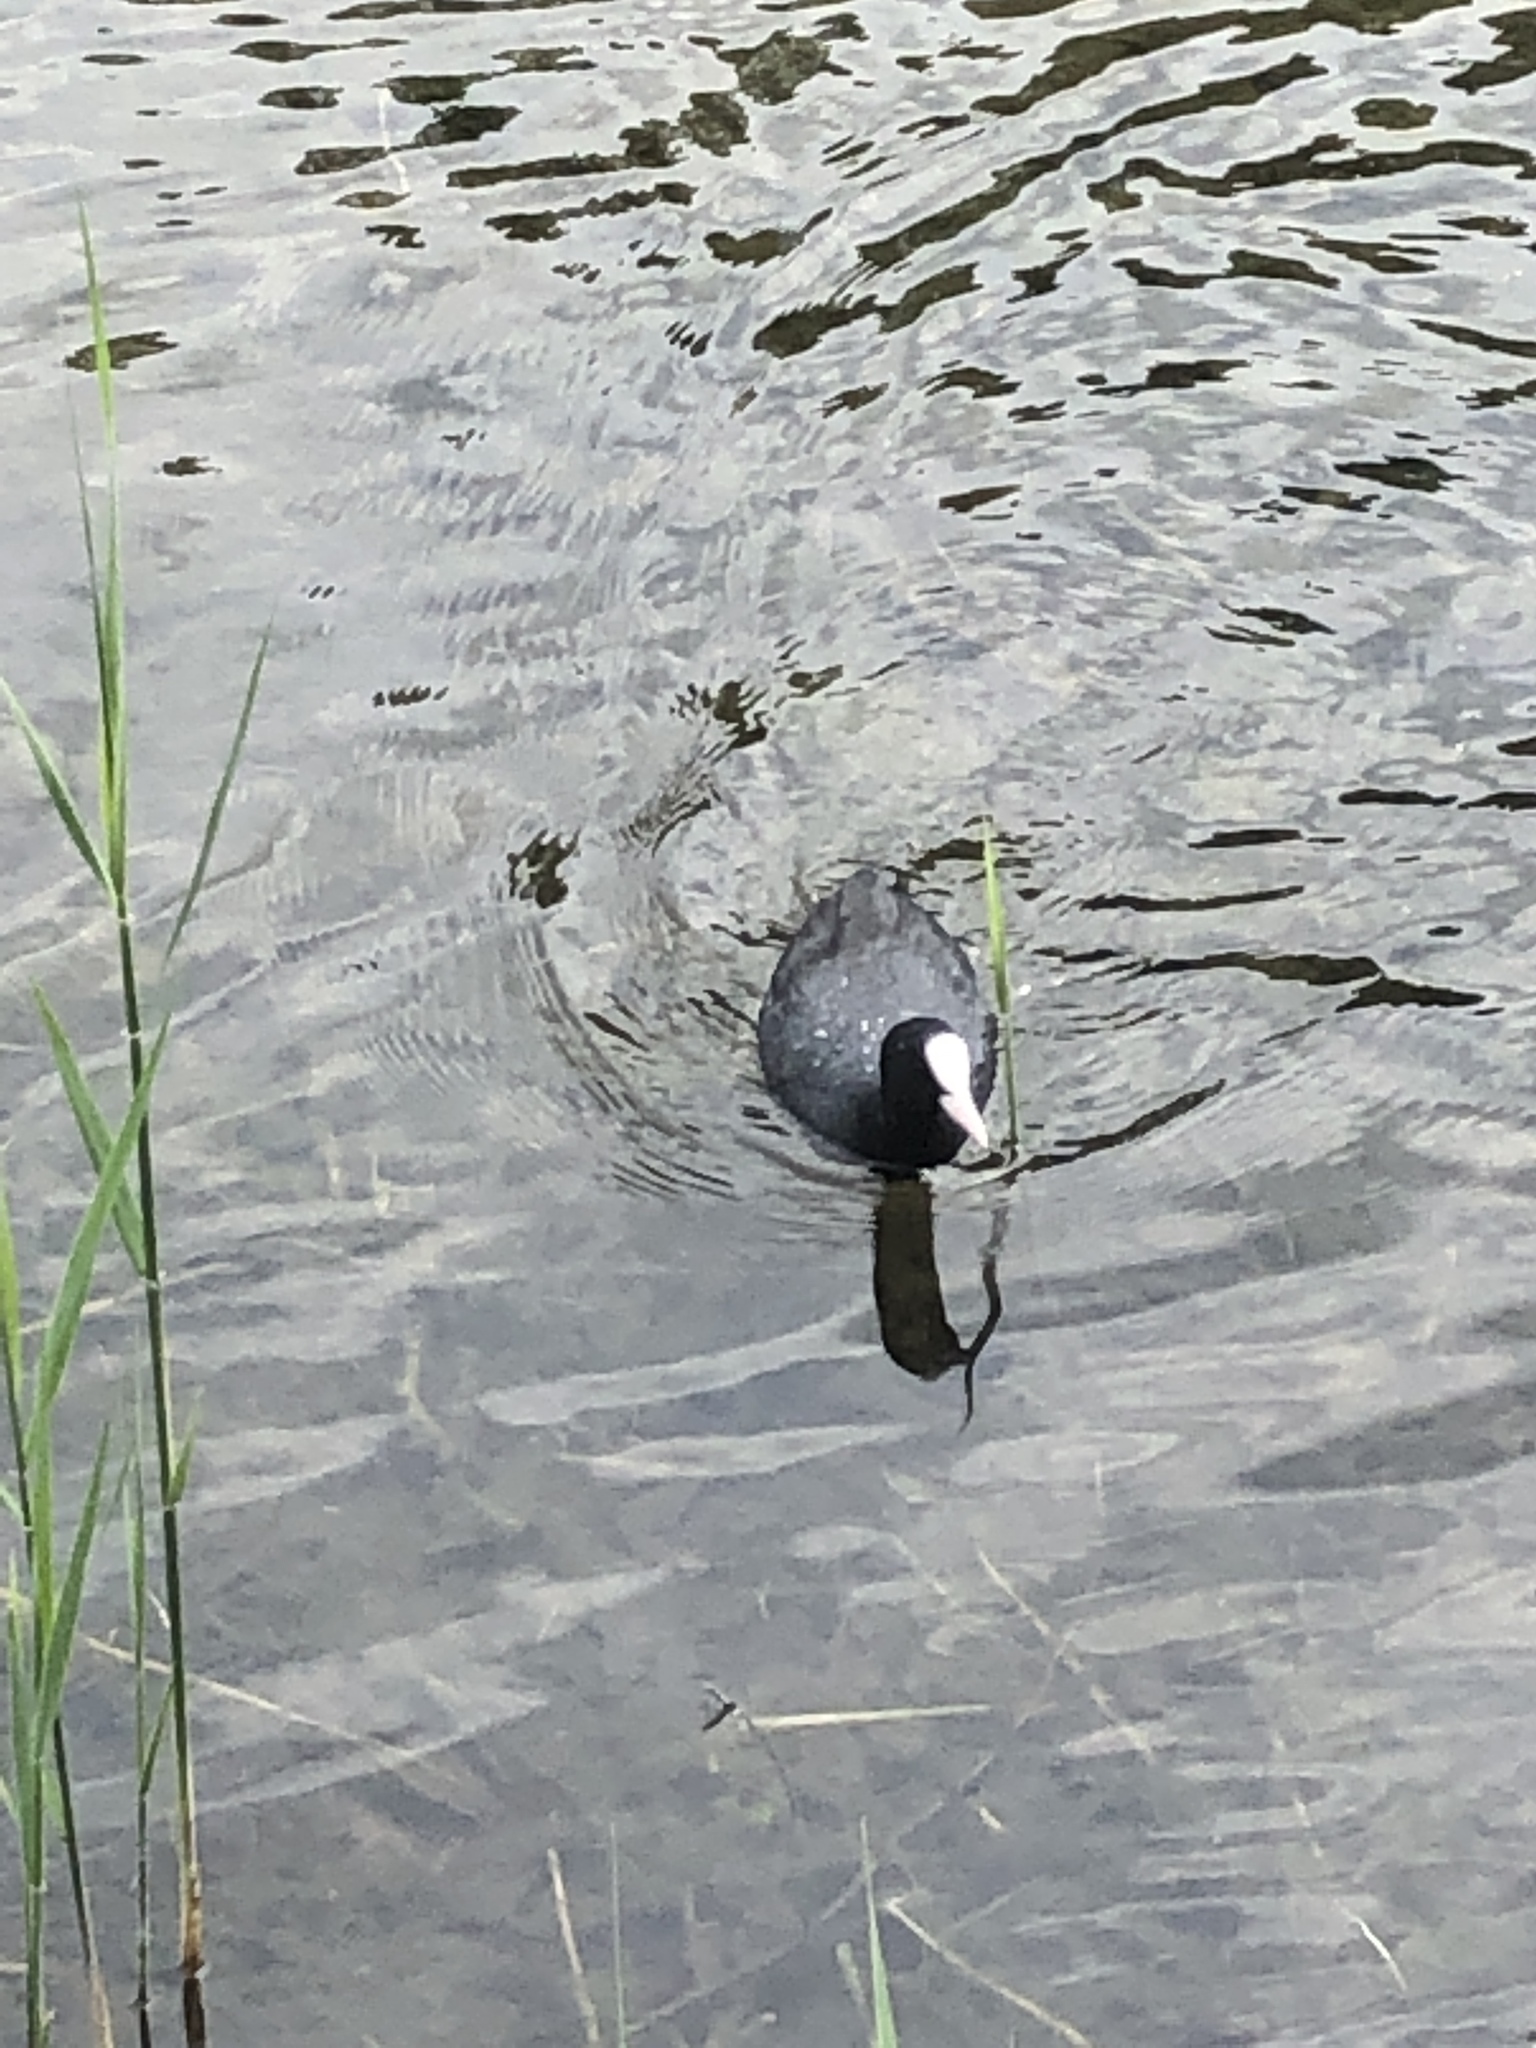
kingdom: Animalia
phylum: Chordata
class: Aves
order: Gruiformes
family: Rallidae
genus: Fulica
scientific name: Fulica atra
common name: Eurasian coot
